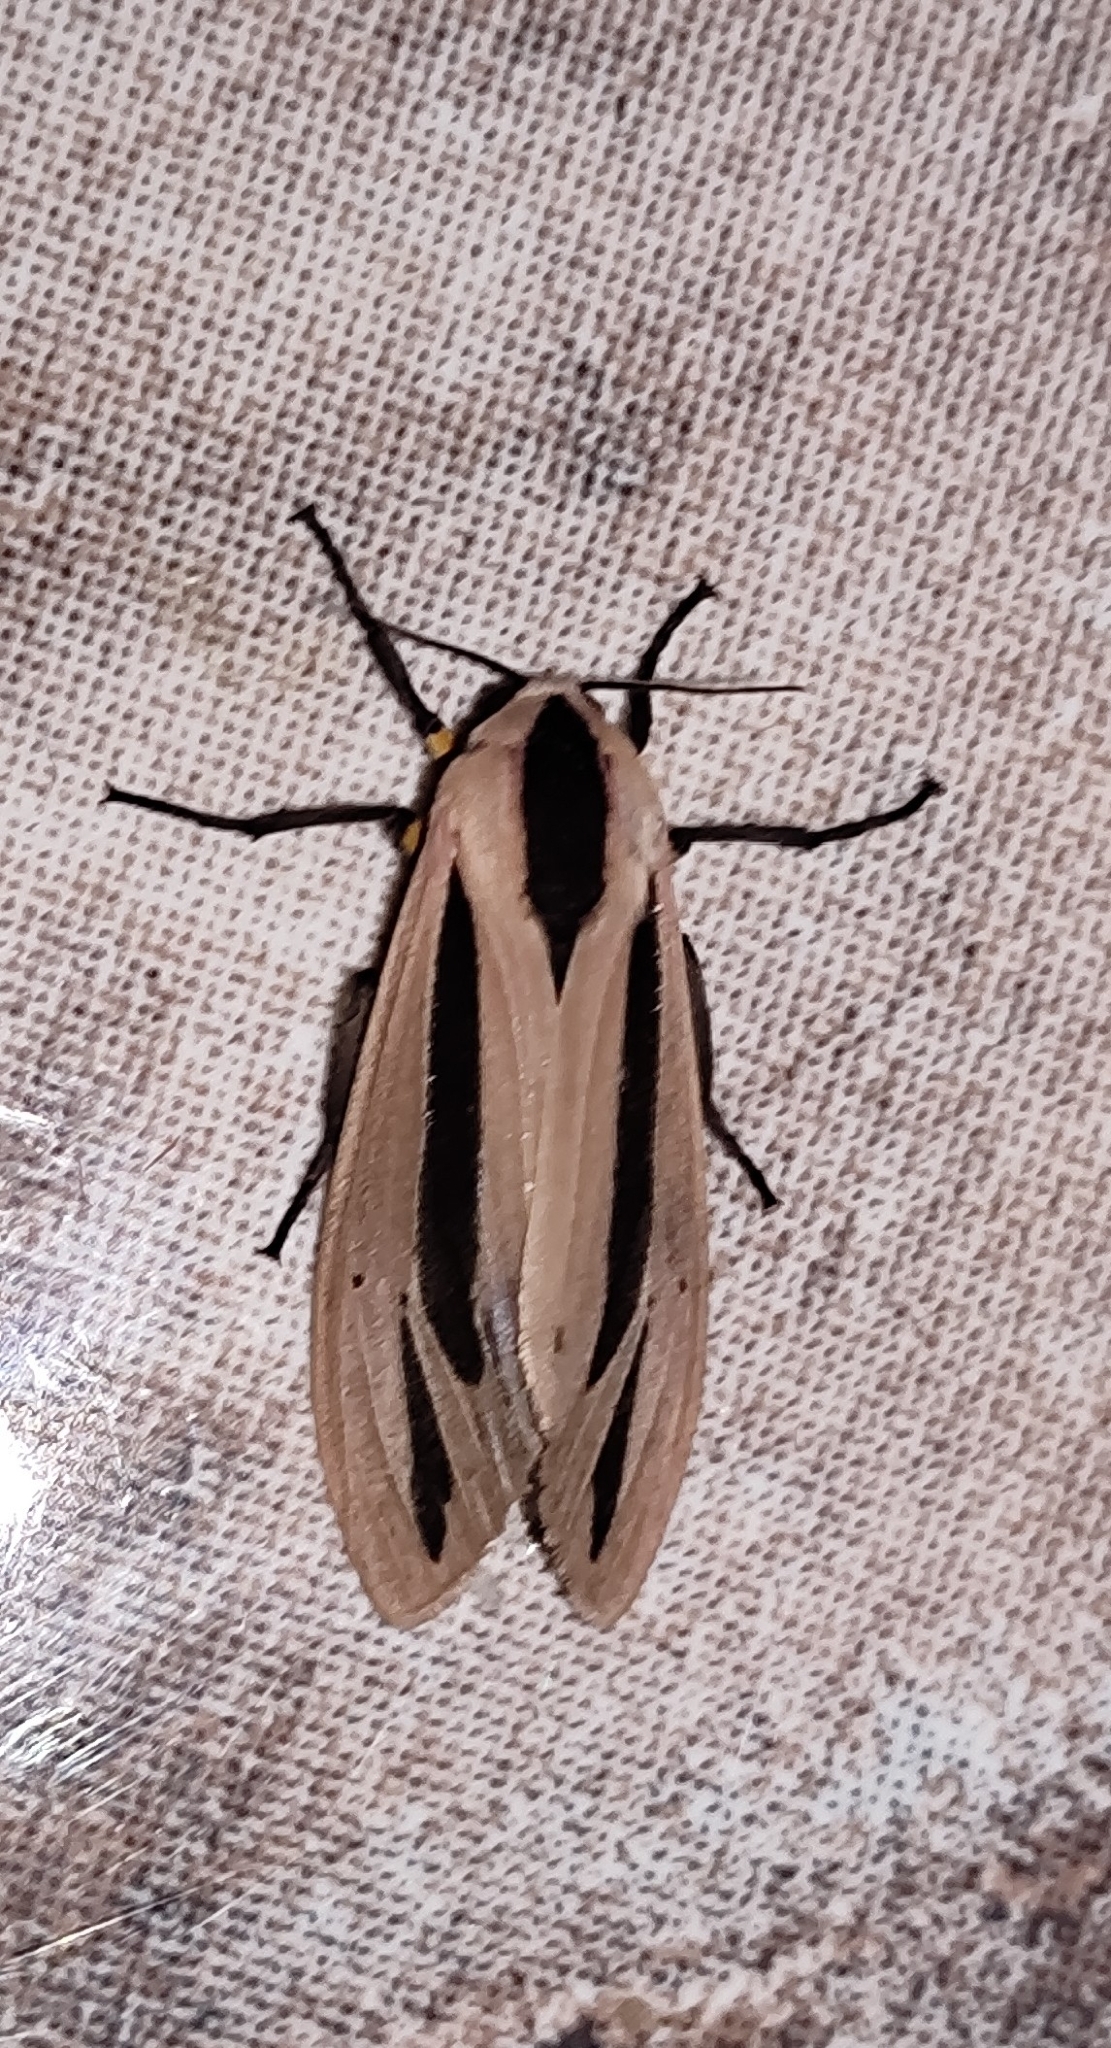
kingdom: Animalia
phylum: Arthropoda
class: Insecta
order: Lepidoptera
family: Erebidae
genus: Creatonotos
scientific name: Creatonotos gangis
